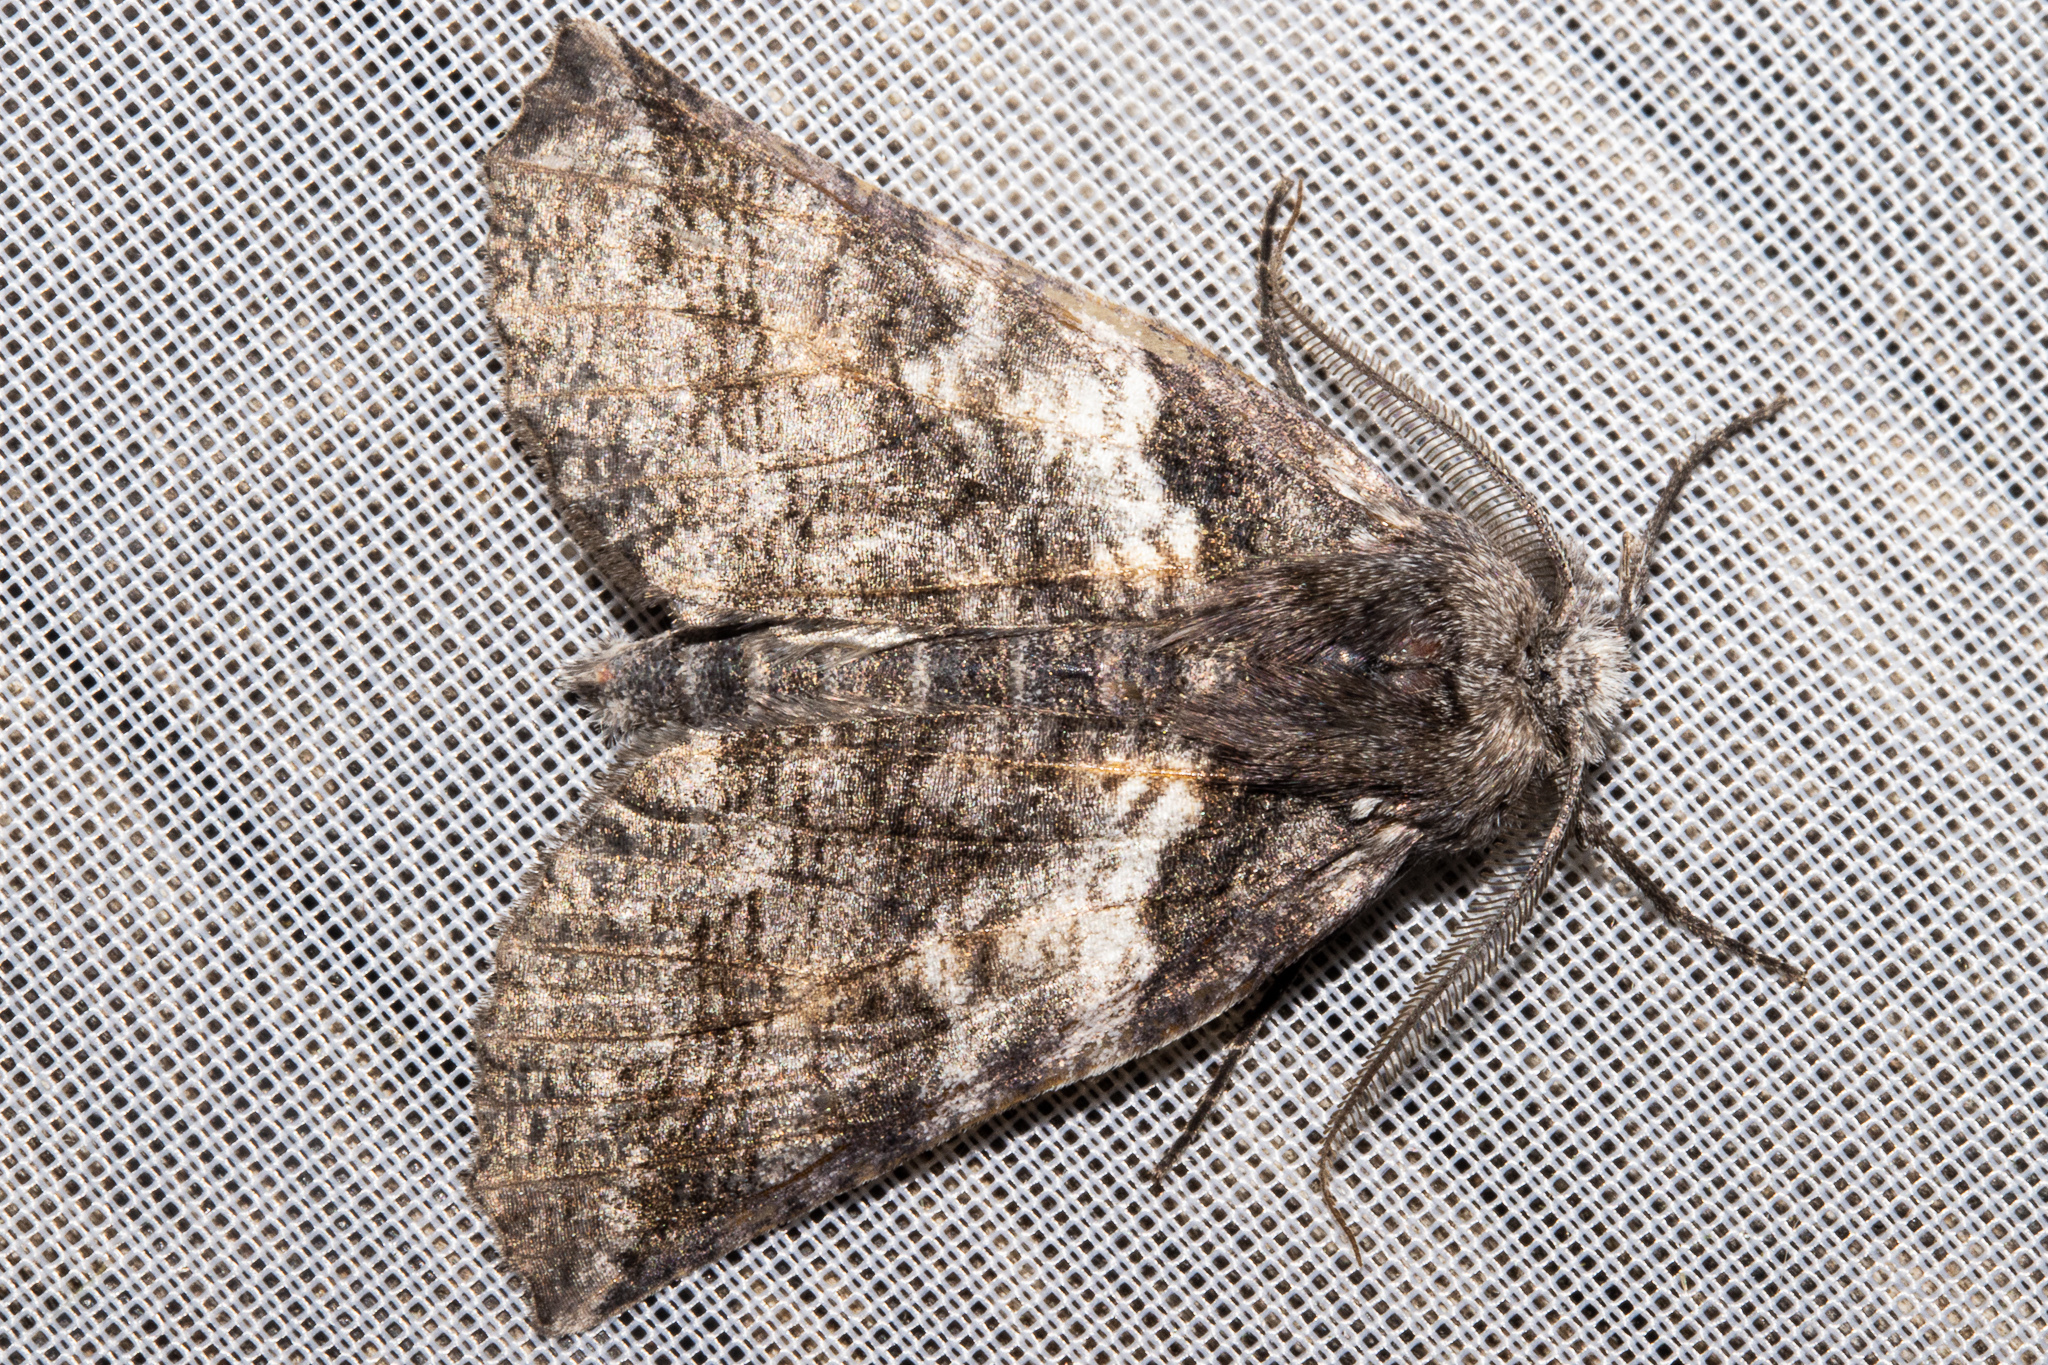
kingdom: Animalia
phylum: Arthropoda
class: Insecta
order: Lepidoptera
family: Geometridae
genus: Declana
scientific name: Declana
